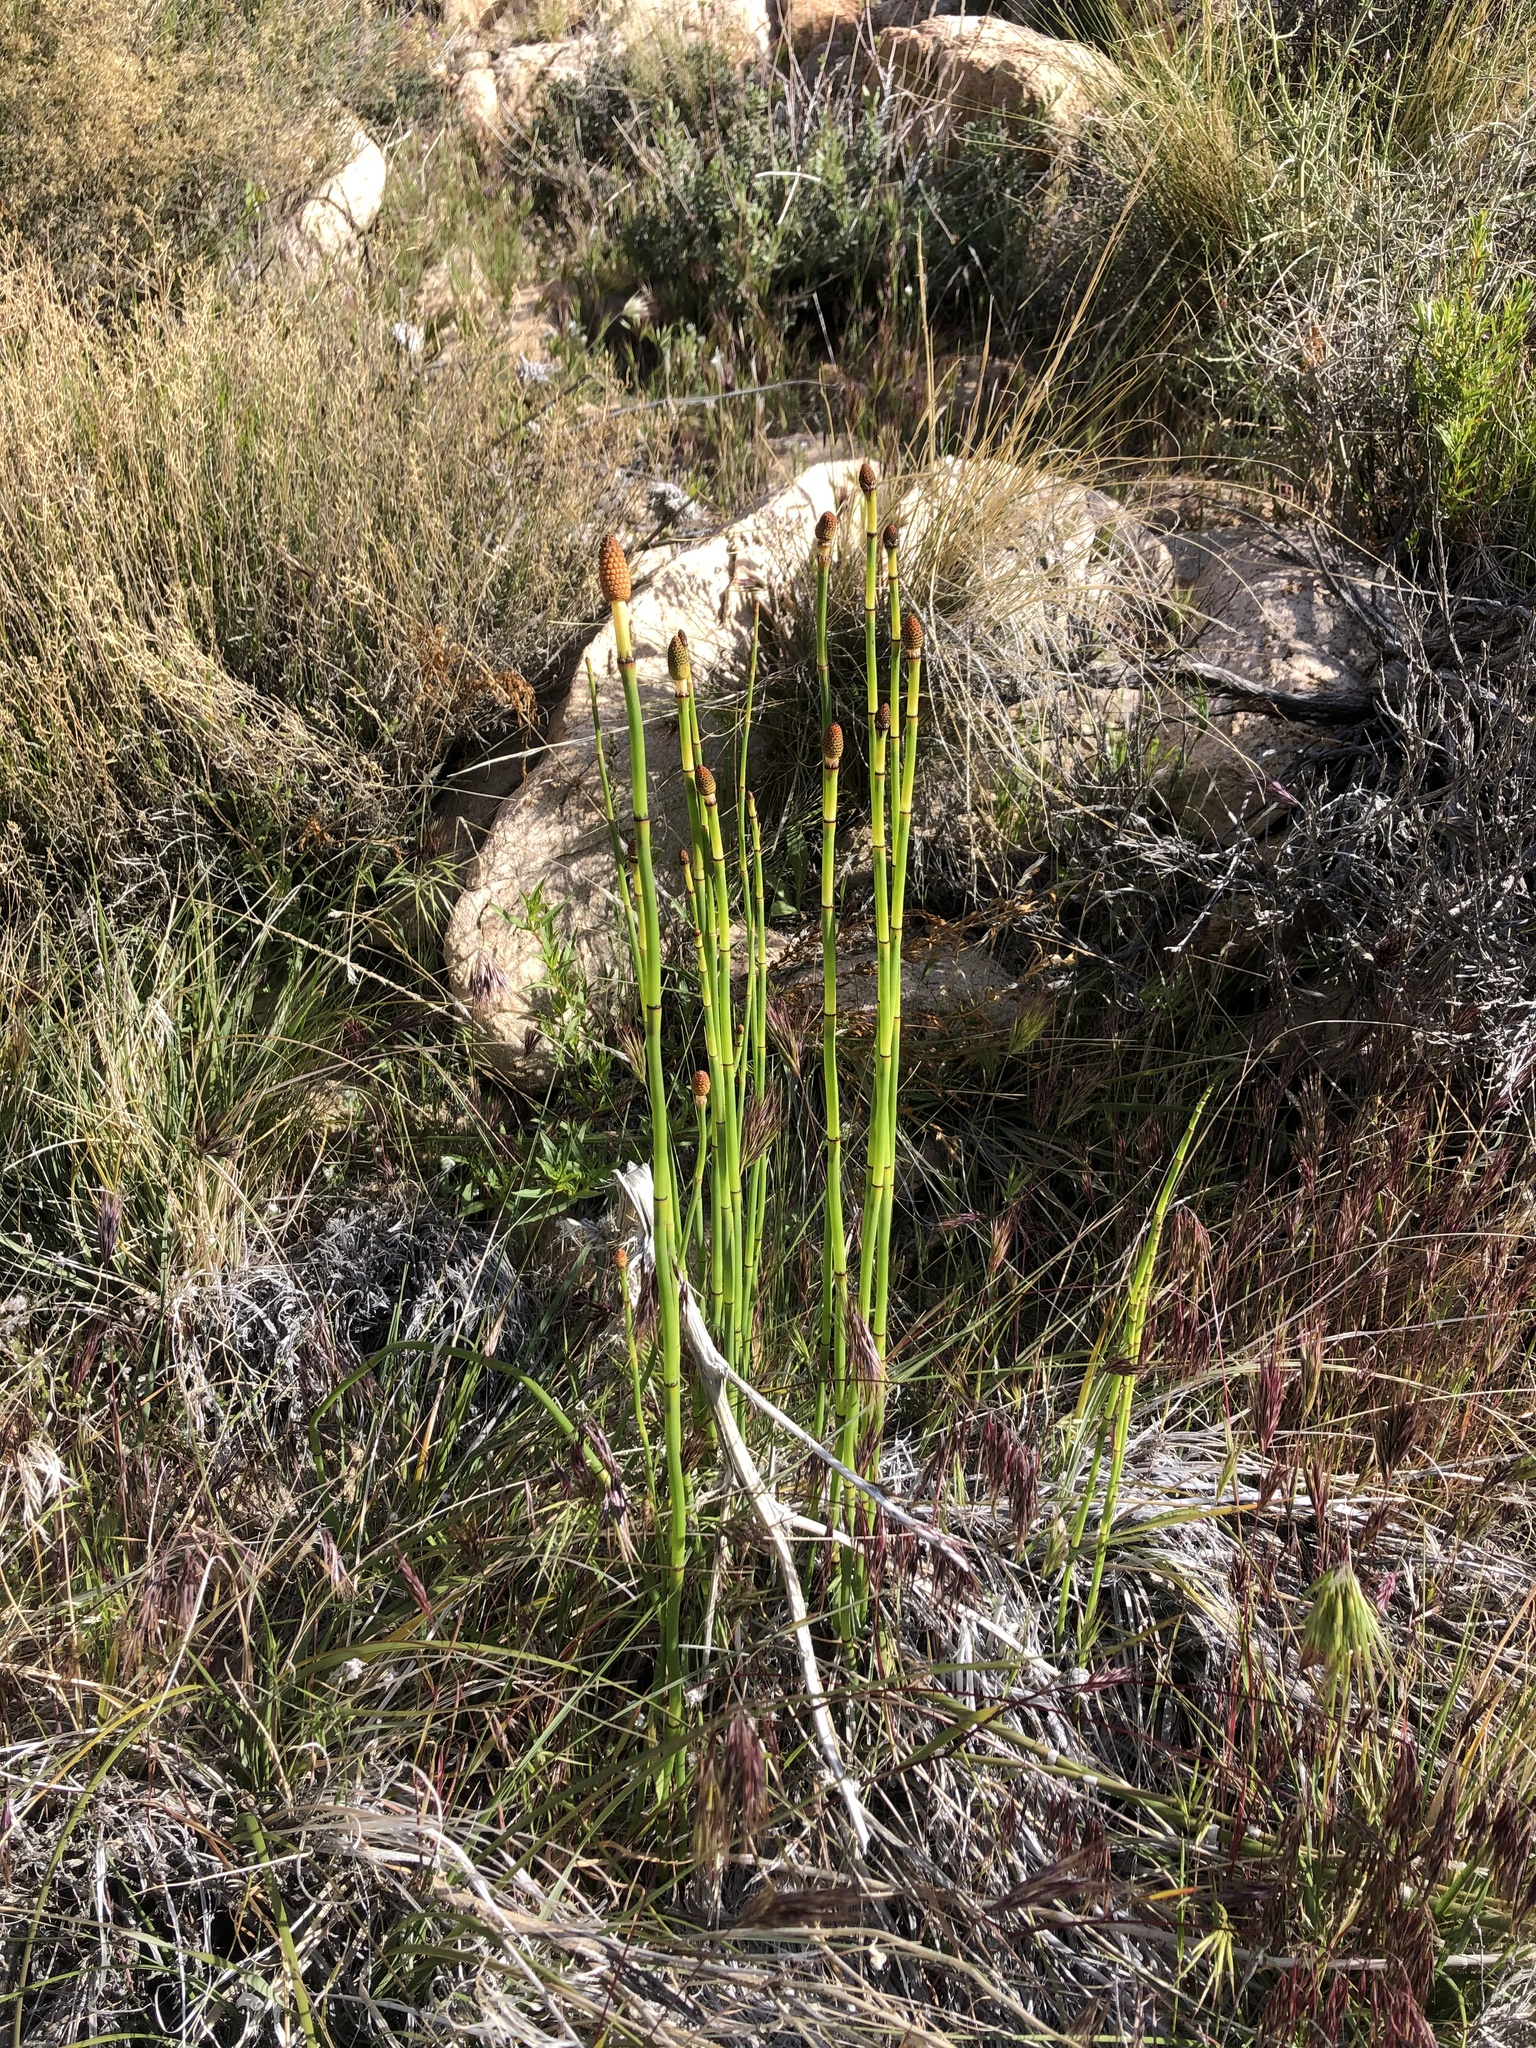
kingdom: Plantae
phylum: Tracheophyta
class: Polypodiopsida
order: Equisetales
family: Equisetaceae
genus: Equisetum
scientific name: Equisetum laevigatum
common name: Smooth scouring-rush
